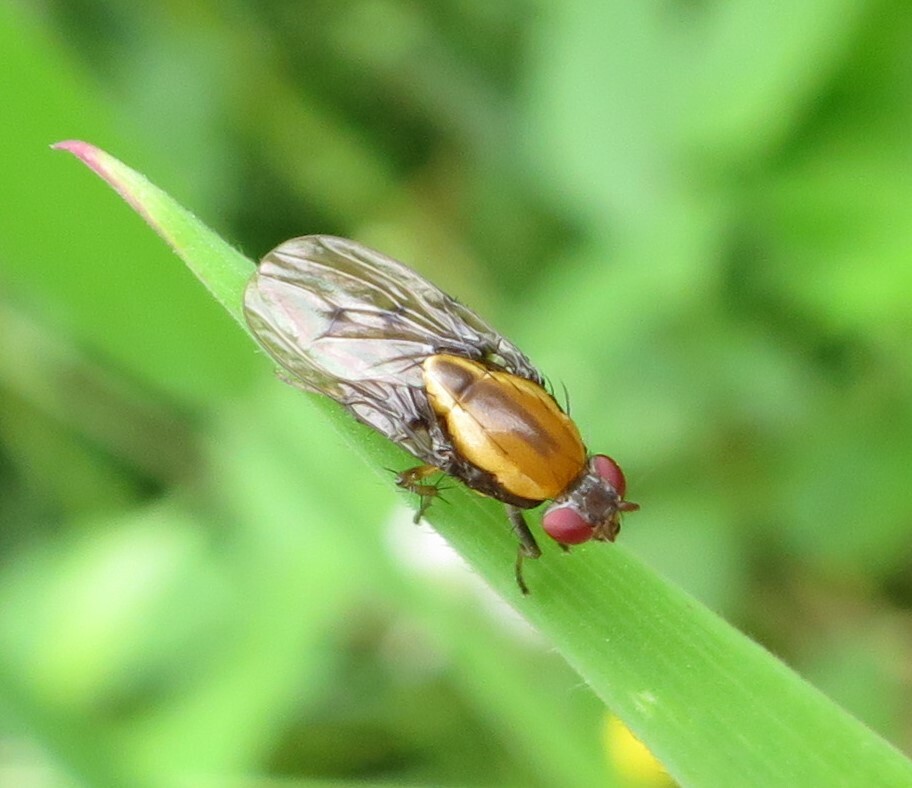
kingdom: Animalia
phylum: Arthropoda
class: Insecta
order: Diptera
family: Heleomyzidae
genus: Allophylopsis
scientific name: Allophylopsis scutellata
